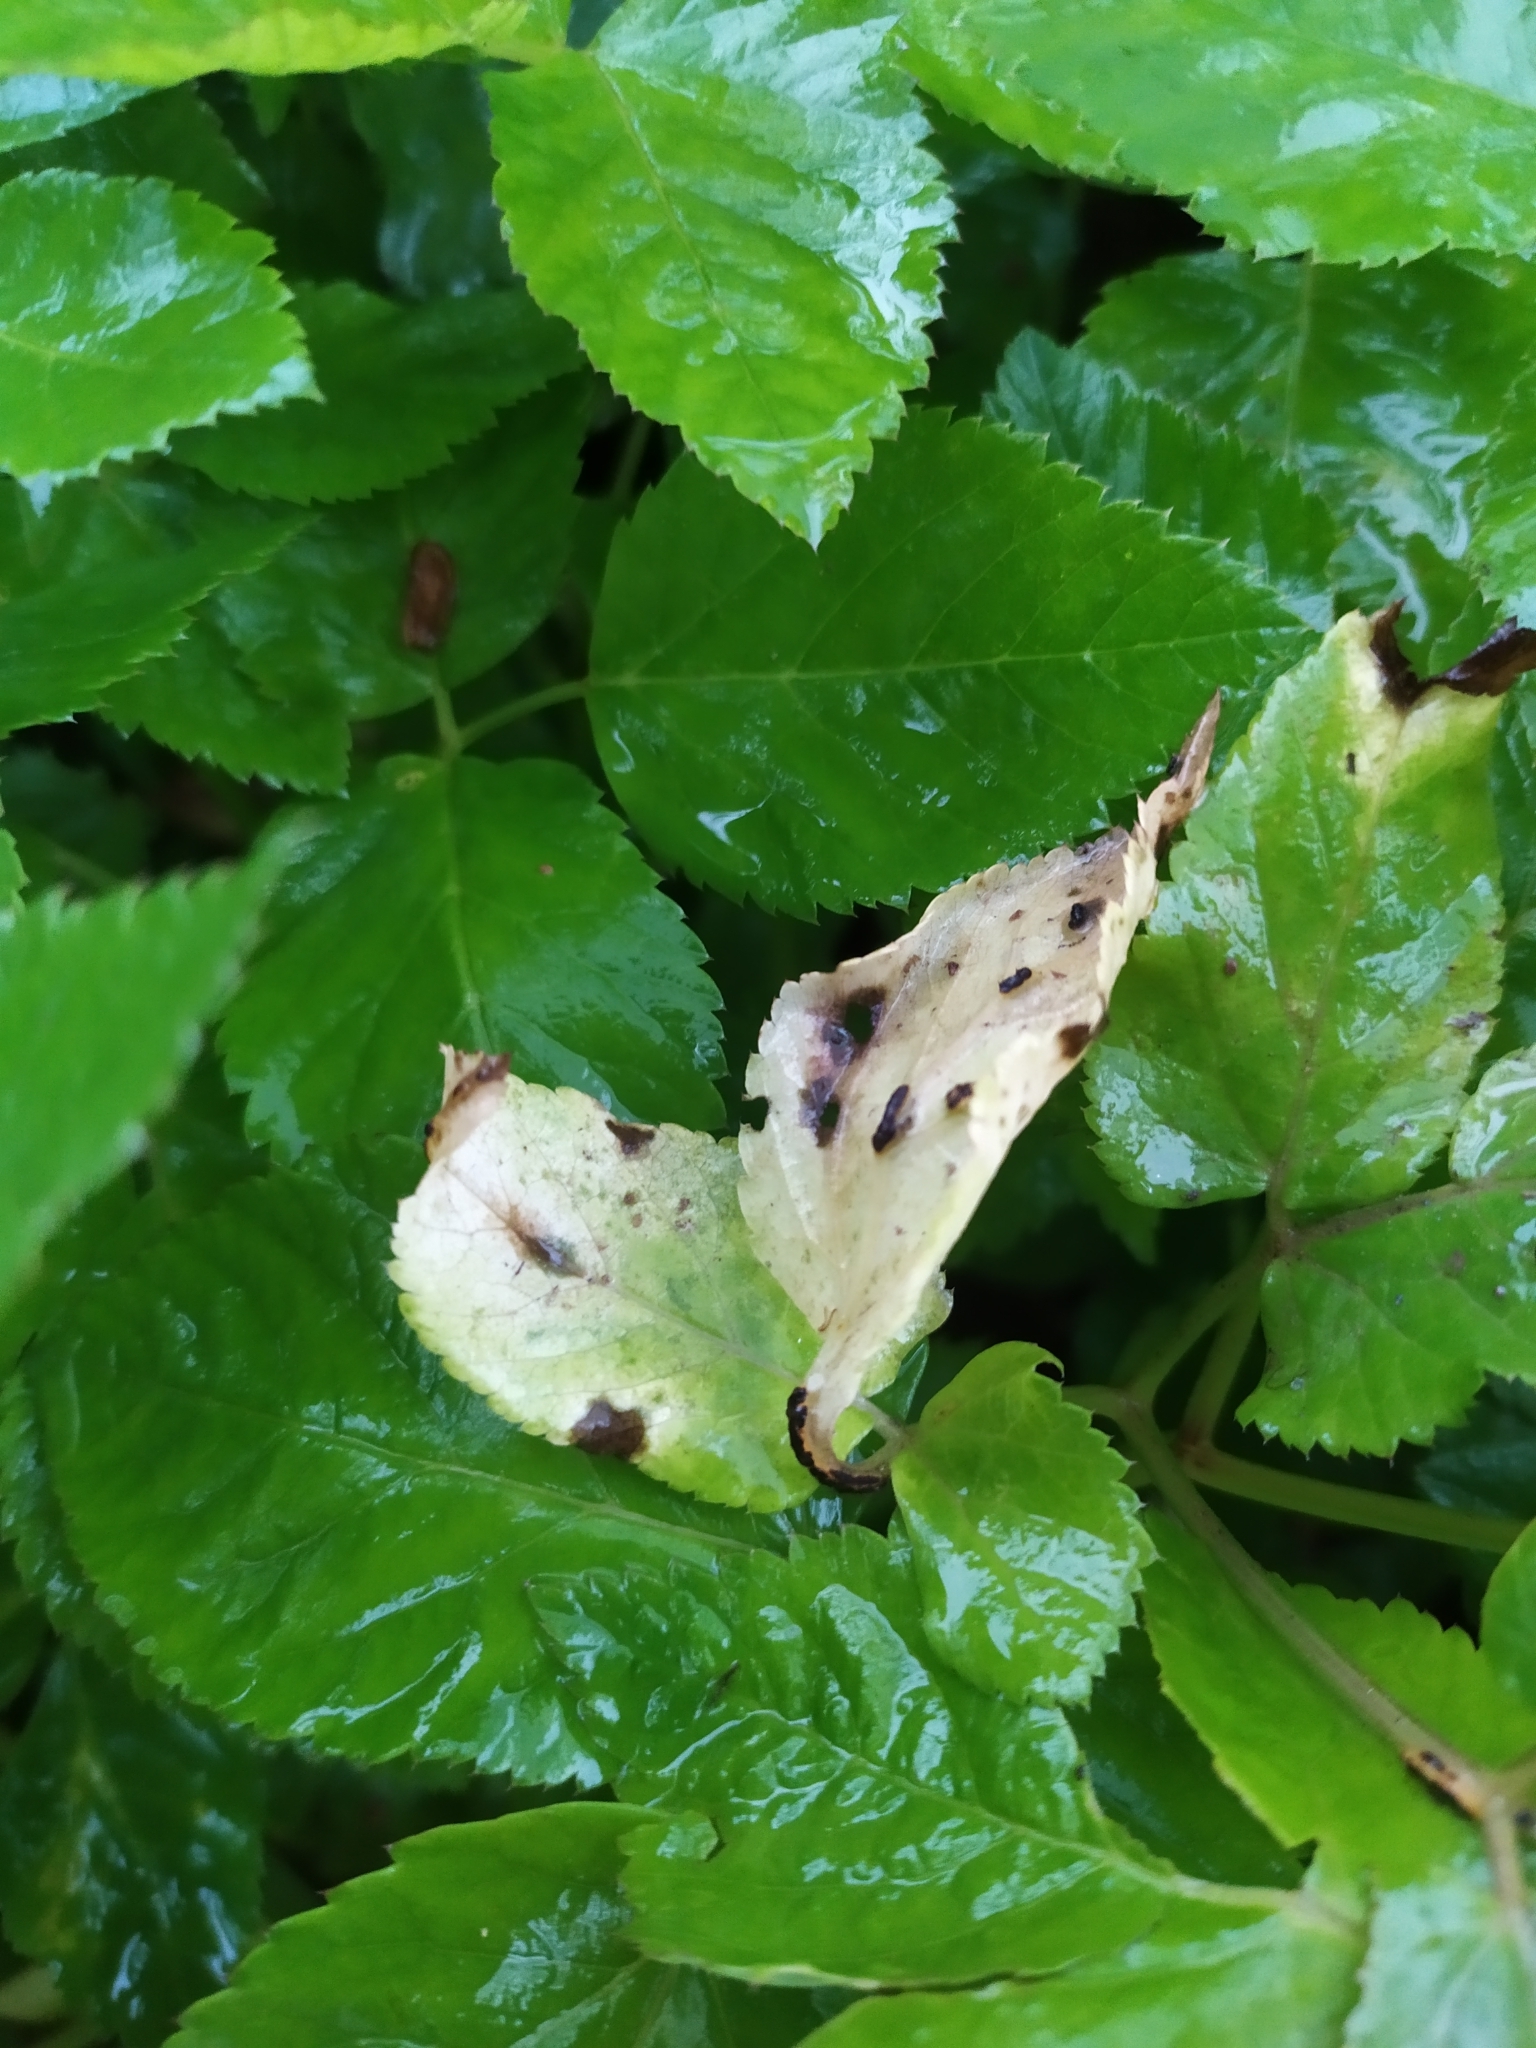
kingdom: Fungi
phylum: Basidiomycota
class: Pucciniomycetes
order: Pucciniales
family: Pucciniaceae
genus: Puccinia
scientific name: Puccinia aegopodii
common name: Ground elder rust
